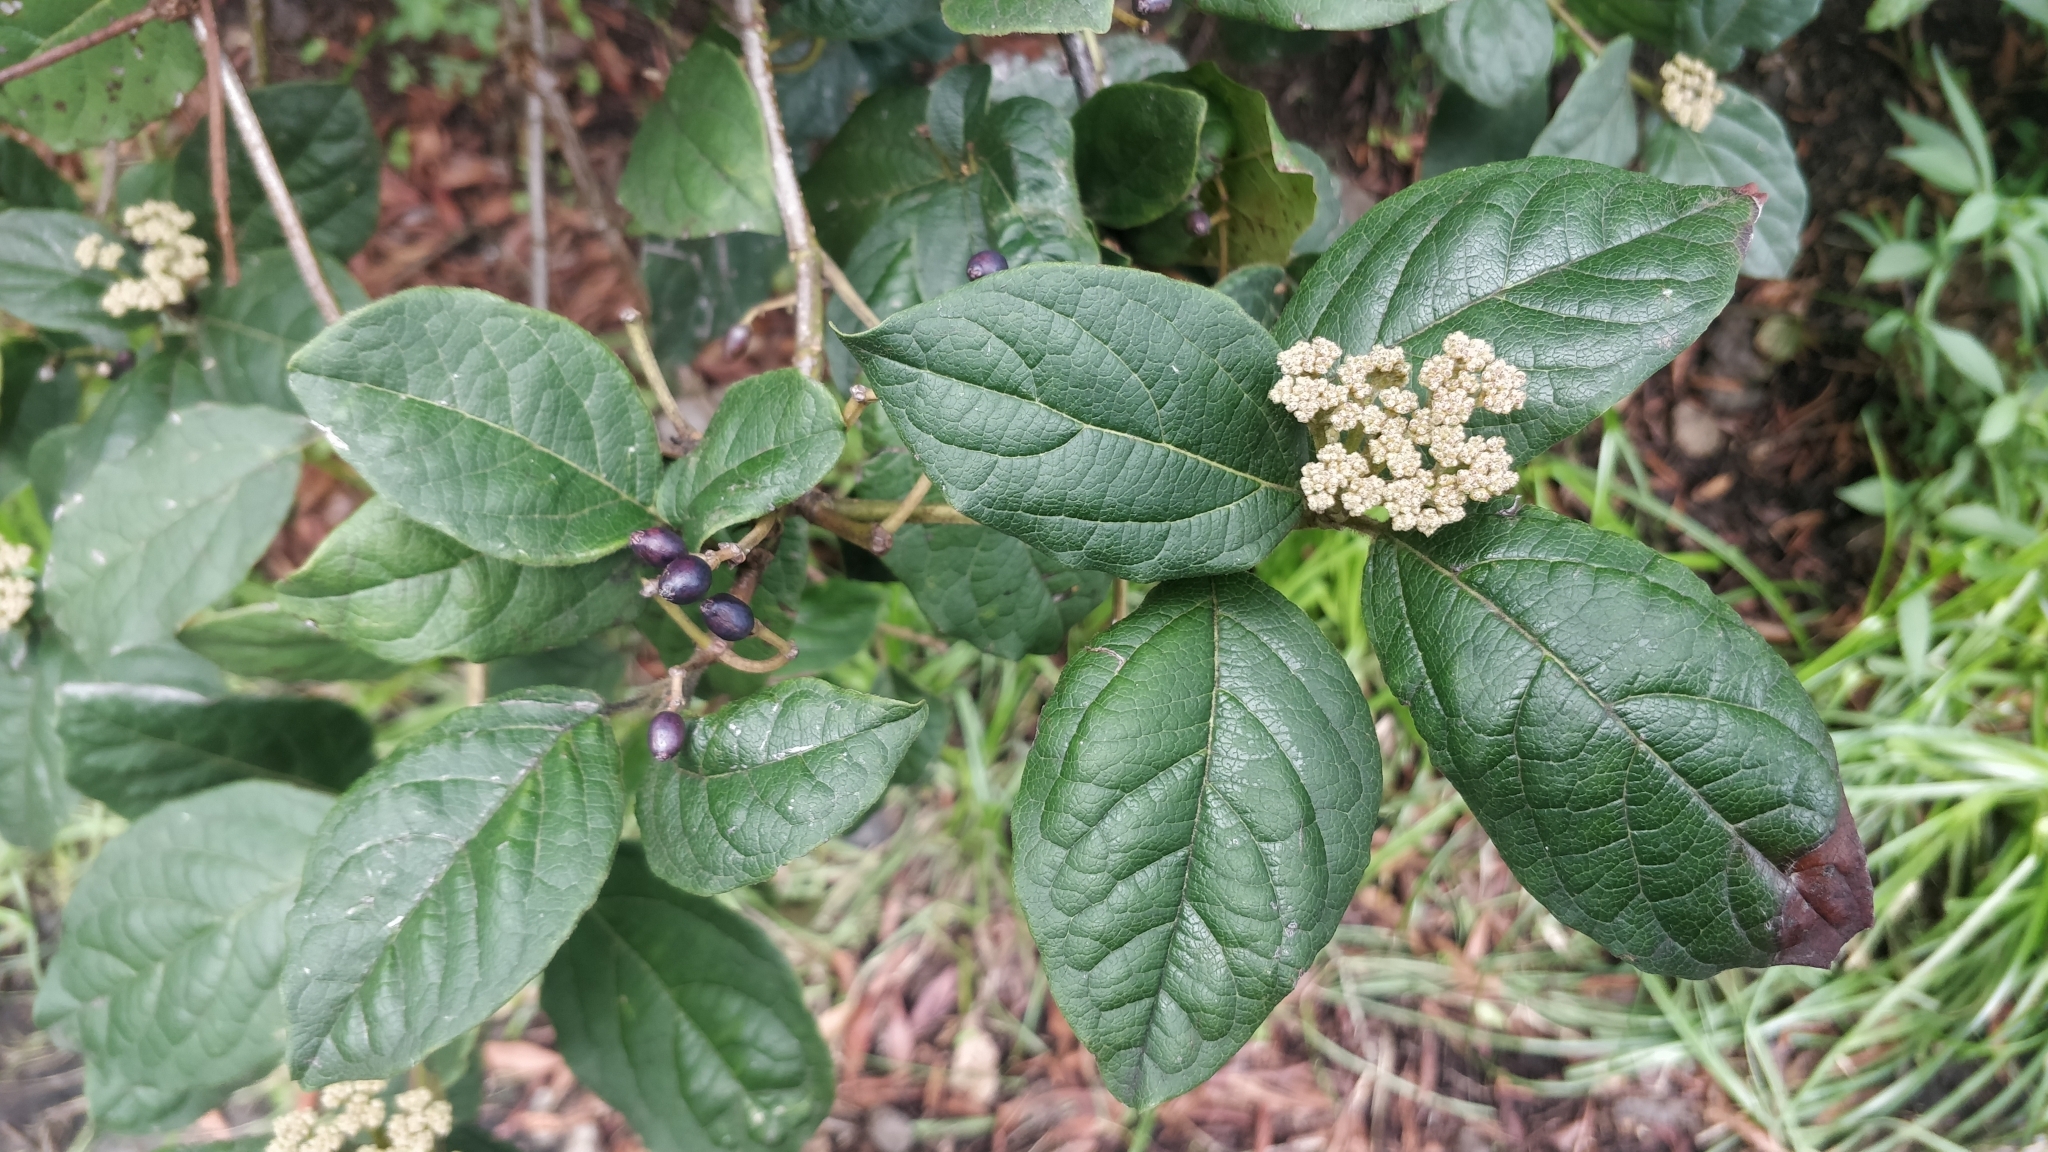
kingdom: Plantae
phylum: Tracheophyta
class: Magnoliopsida
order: Dipsacales
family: Viburnaceae
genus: Viburnum
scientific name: Viburnum rugosum
